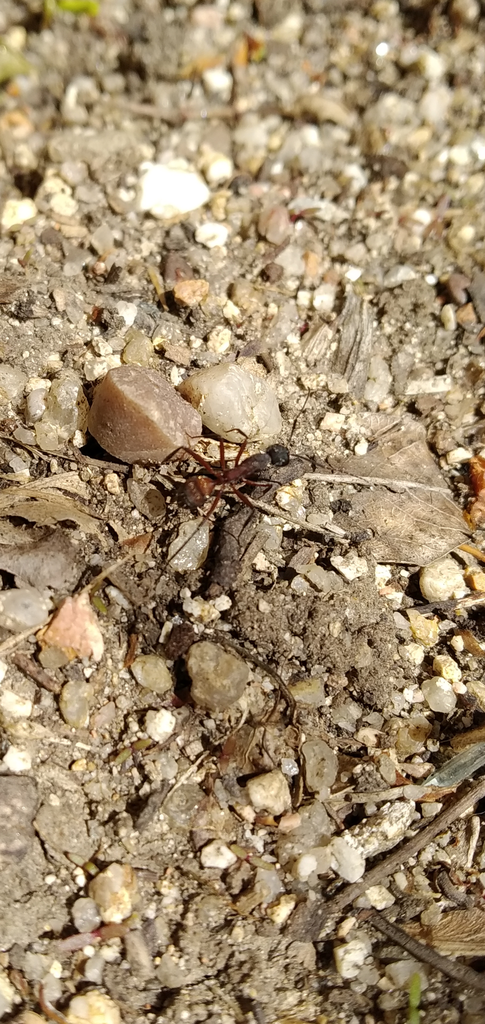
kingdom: Animalia
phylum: Arthropoda
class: Insecta
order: Hymenoptera
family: Formicidae
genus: Camponotus
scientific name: Camponotus cruentatus
